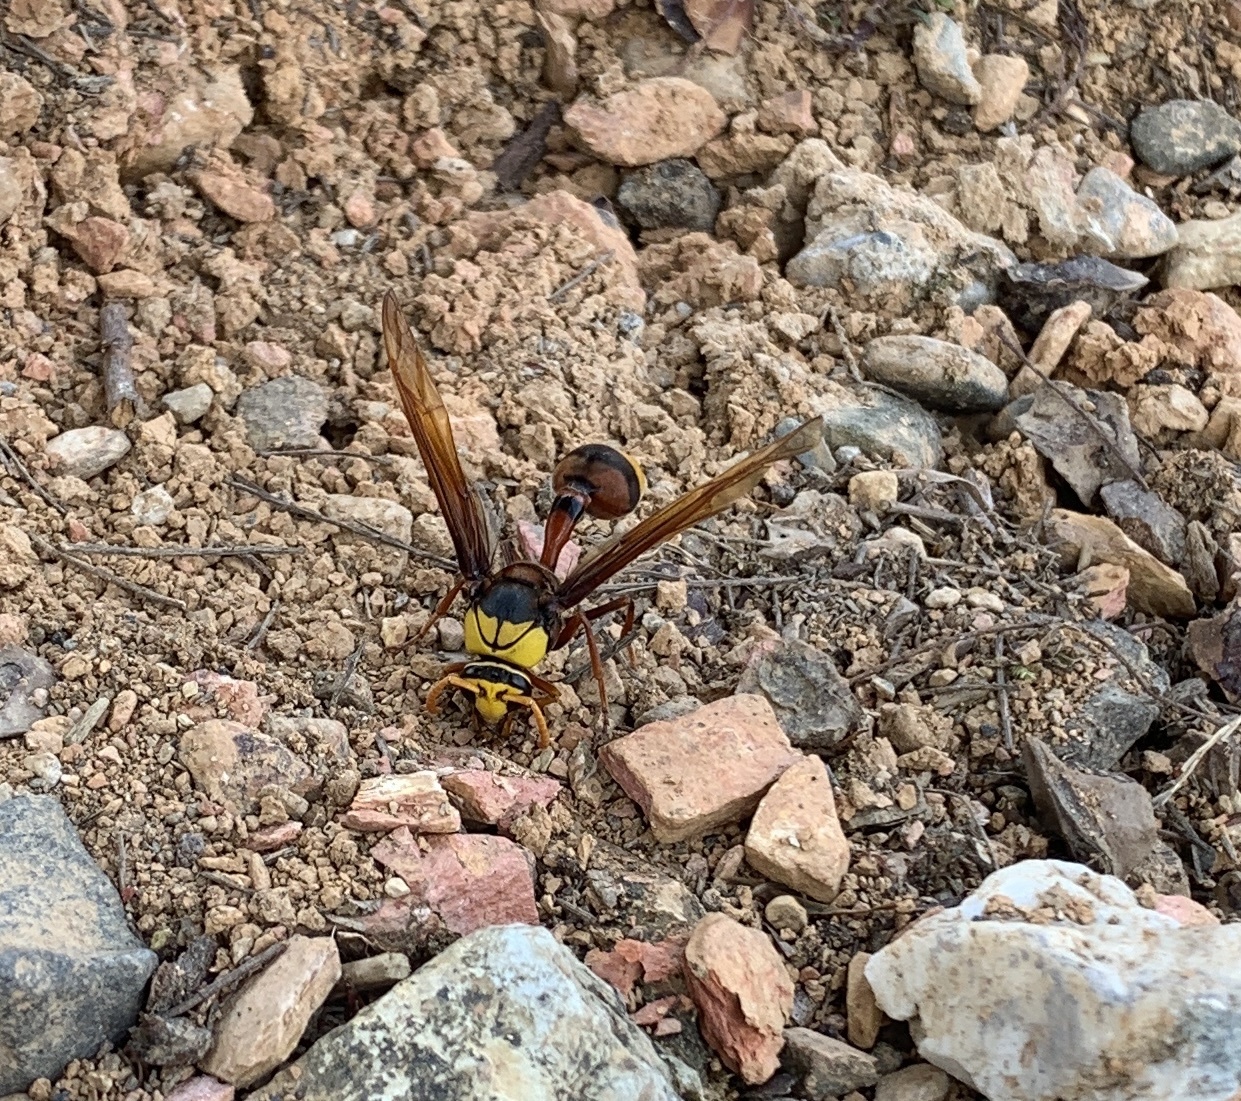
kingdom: Animalia
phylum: Arthropoda
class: Insecta
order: Hymenoptera
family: Eumenidae
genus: Delta
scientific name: Delta pyriforme
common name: Wasp
